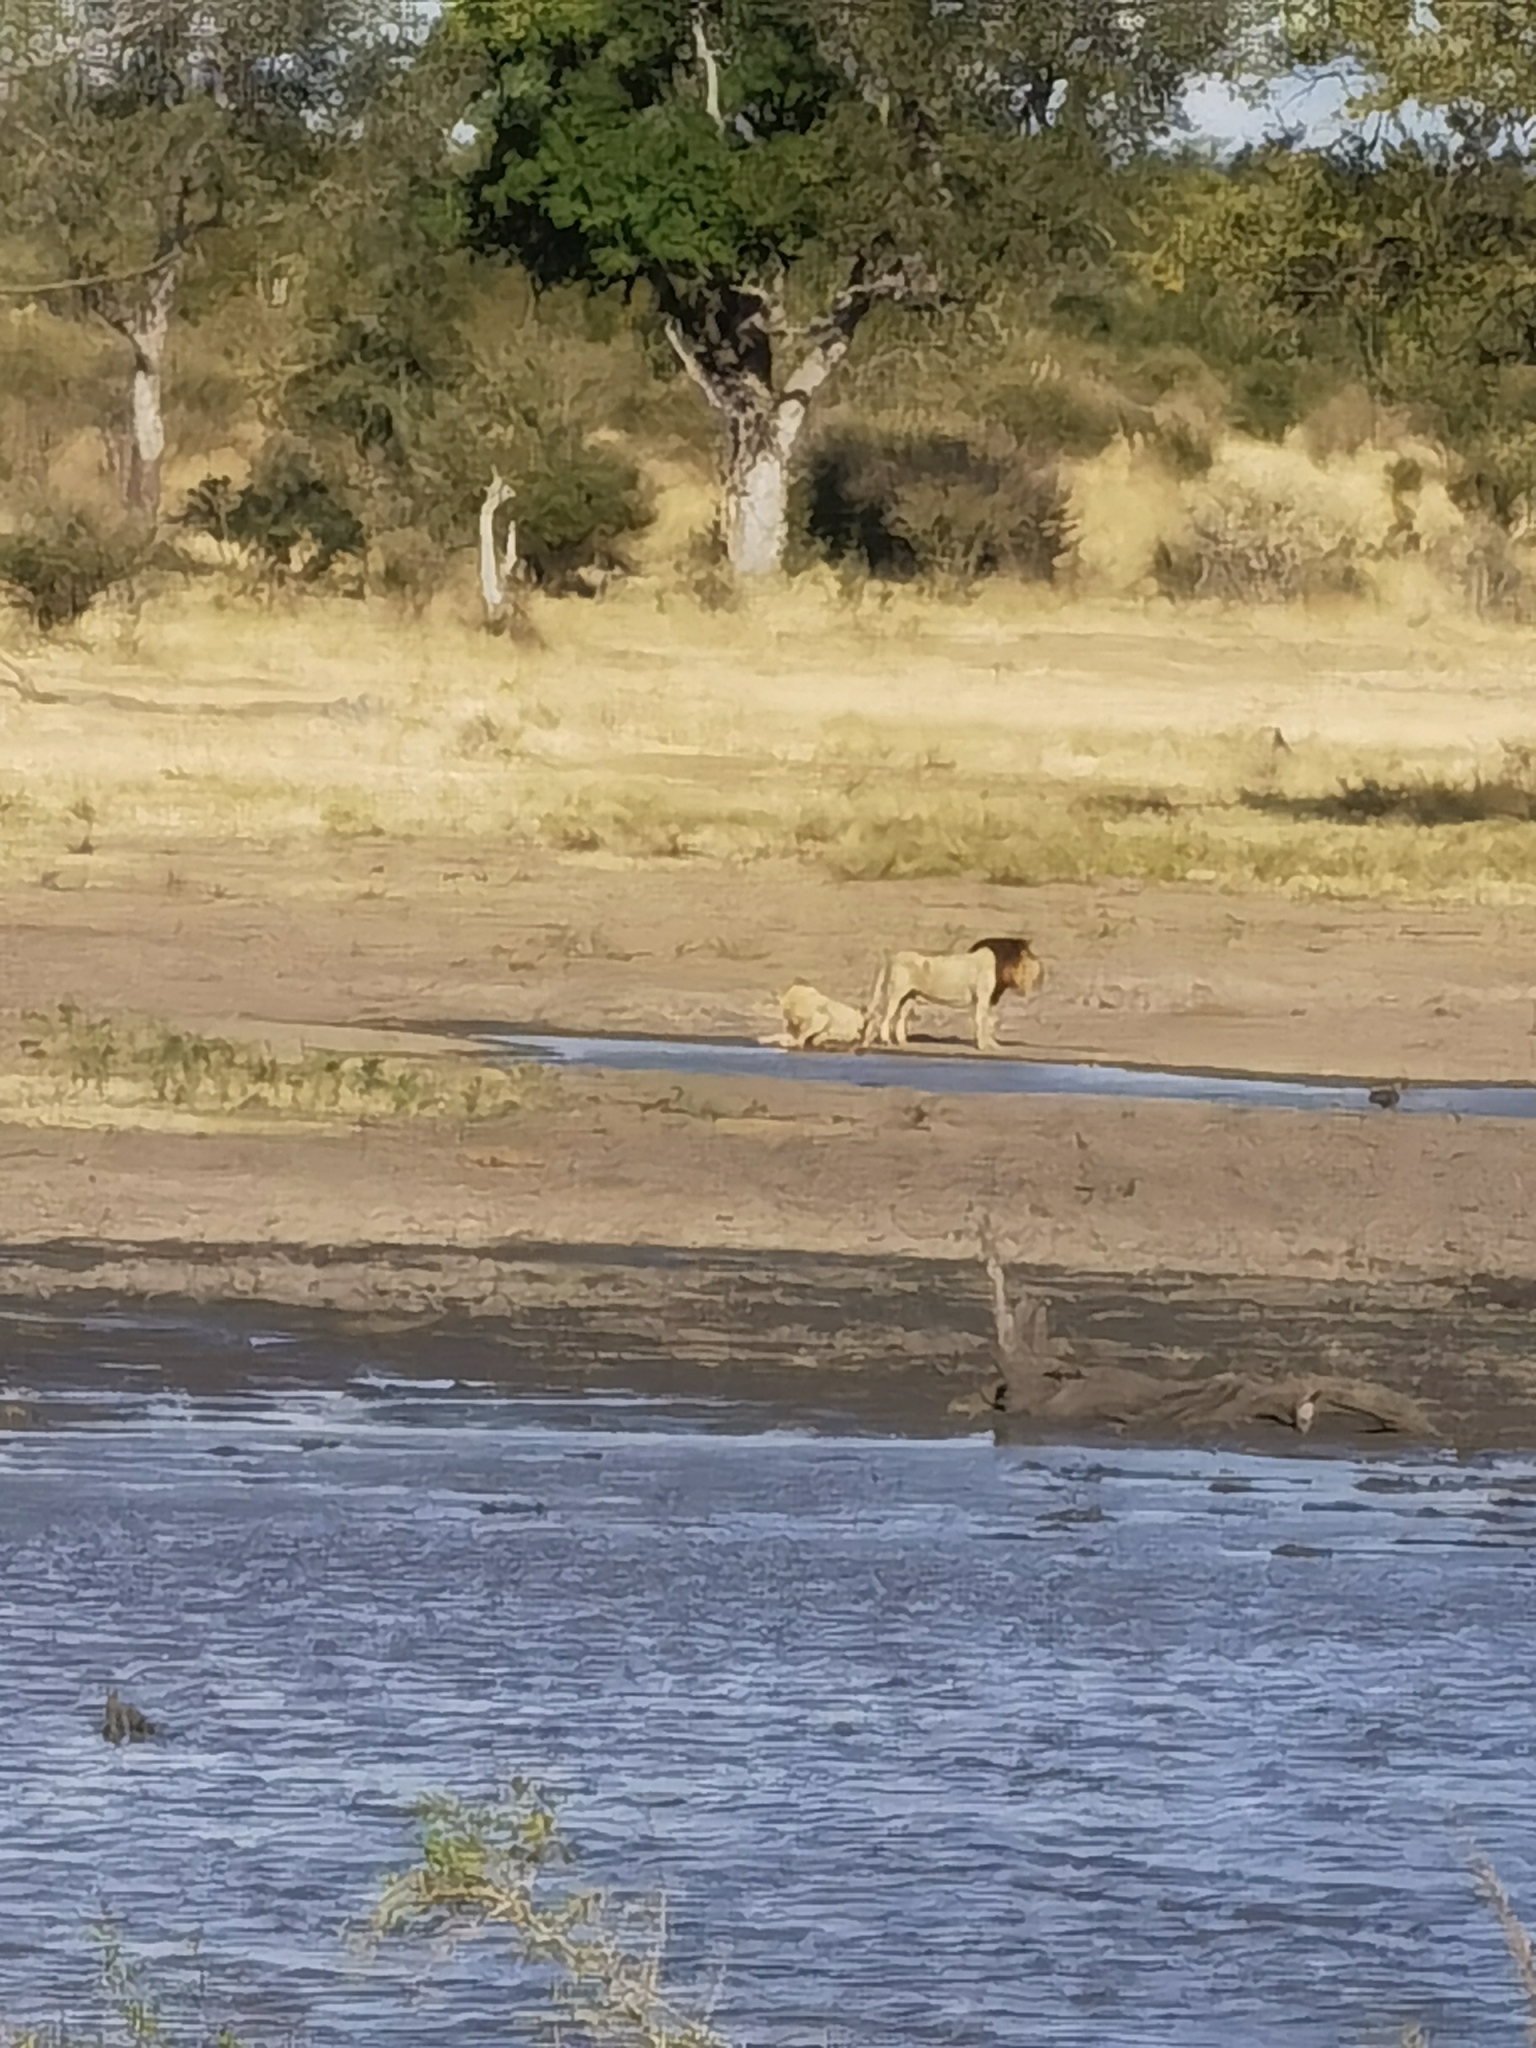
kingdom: Animalia
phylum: Chordata
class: Mammalia
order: Carnivora
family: Felidae
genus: Panthera
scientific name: Panthera leo
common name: Lion
